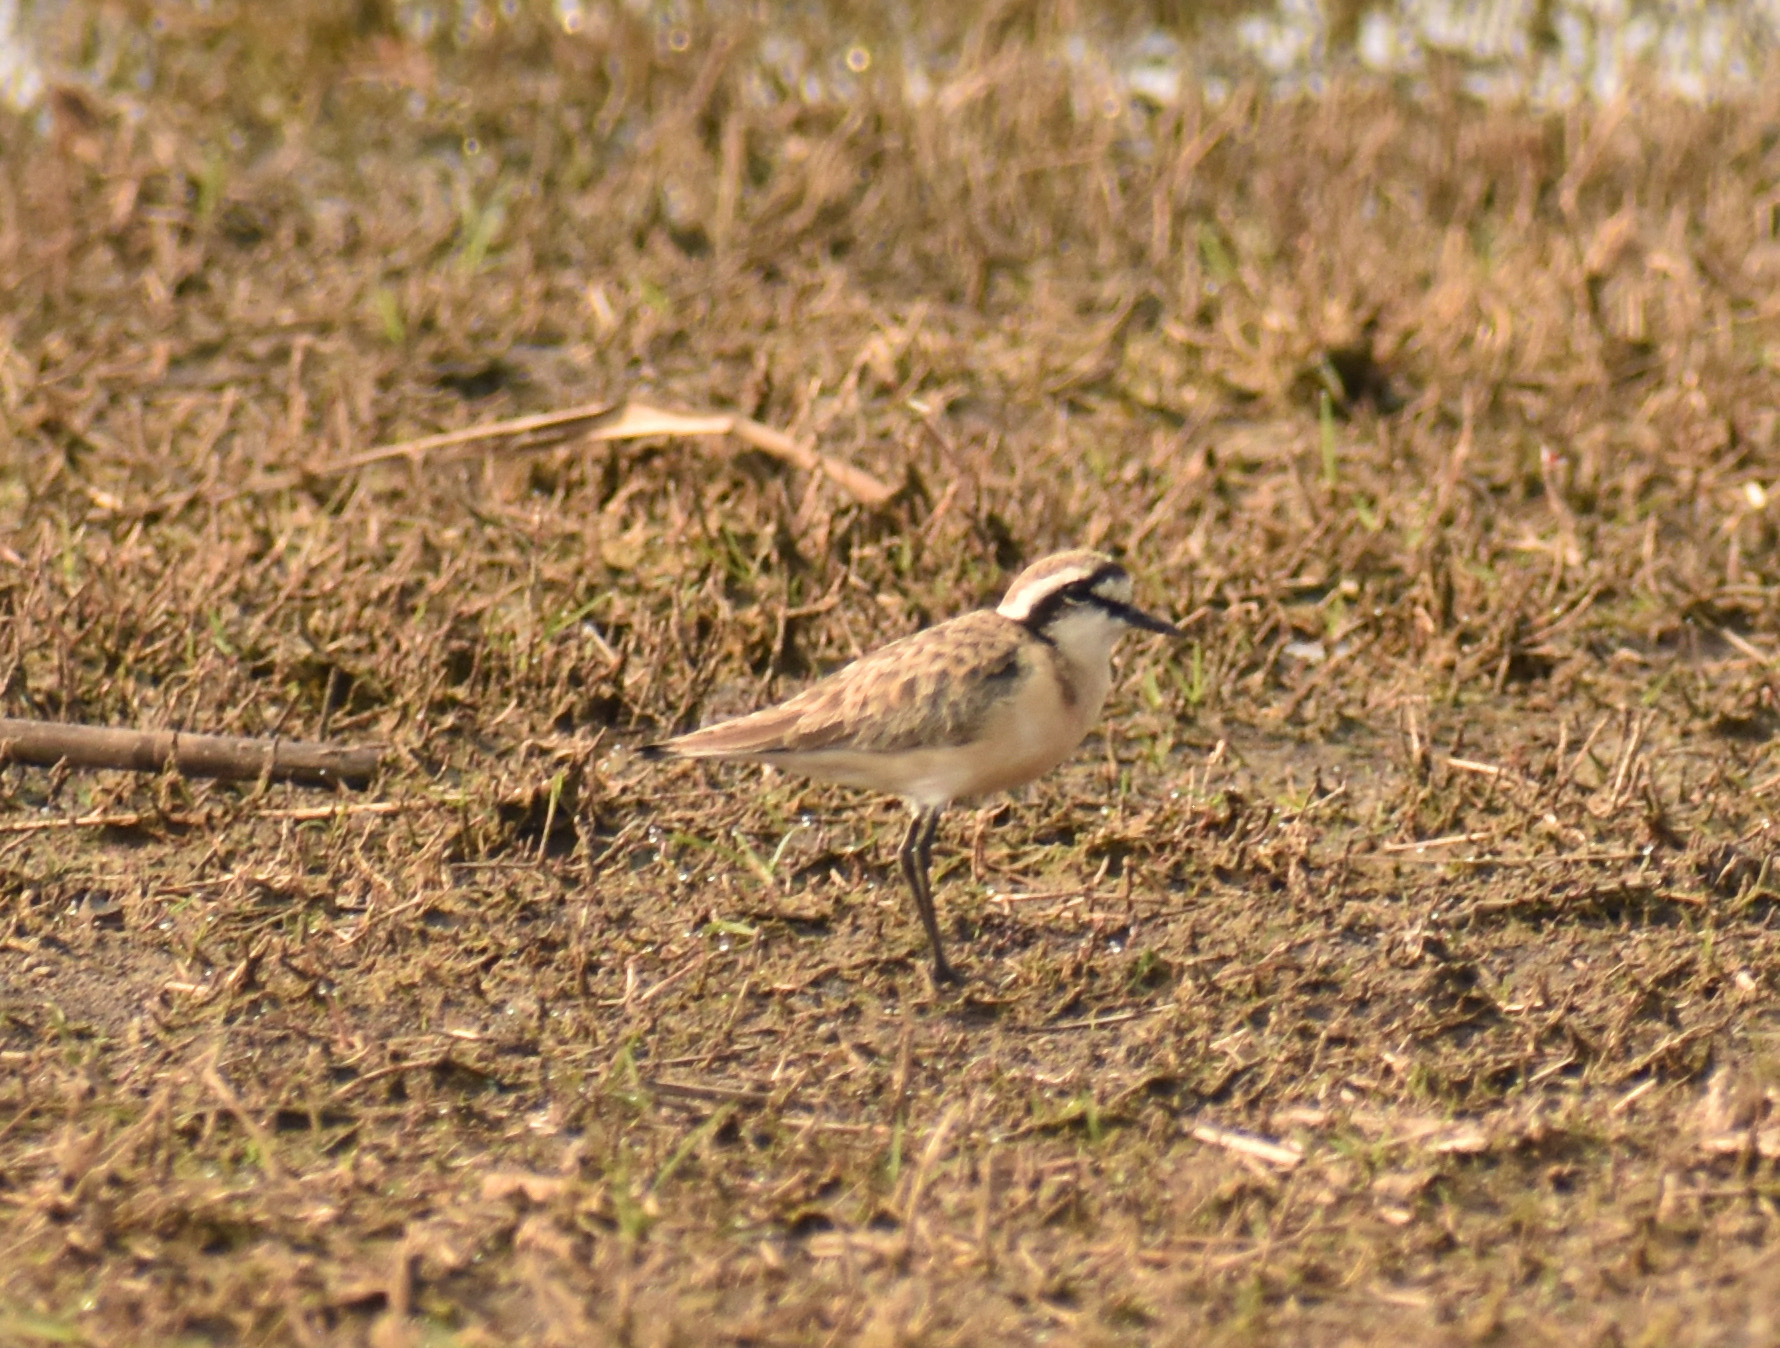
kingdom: Animalia
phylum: Chordata
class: Aves
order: Charadriiformes
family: Charadriidae
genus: Anarhynchus
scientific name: Anarhynchus
